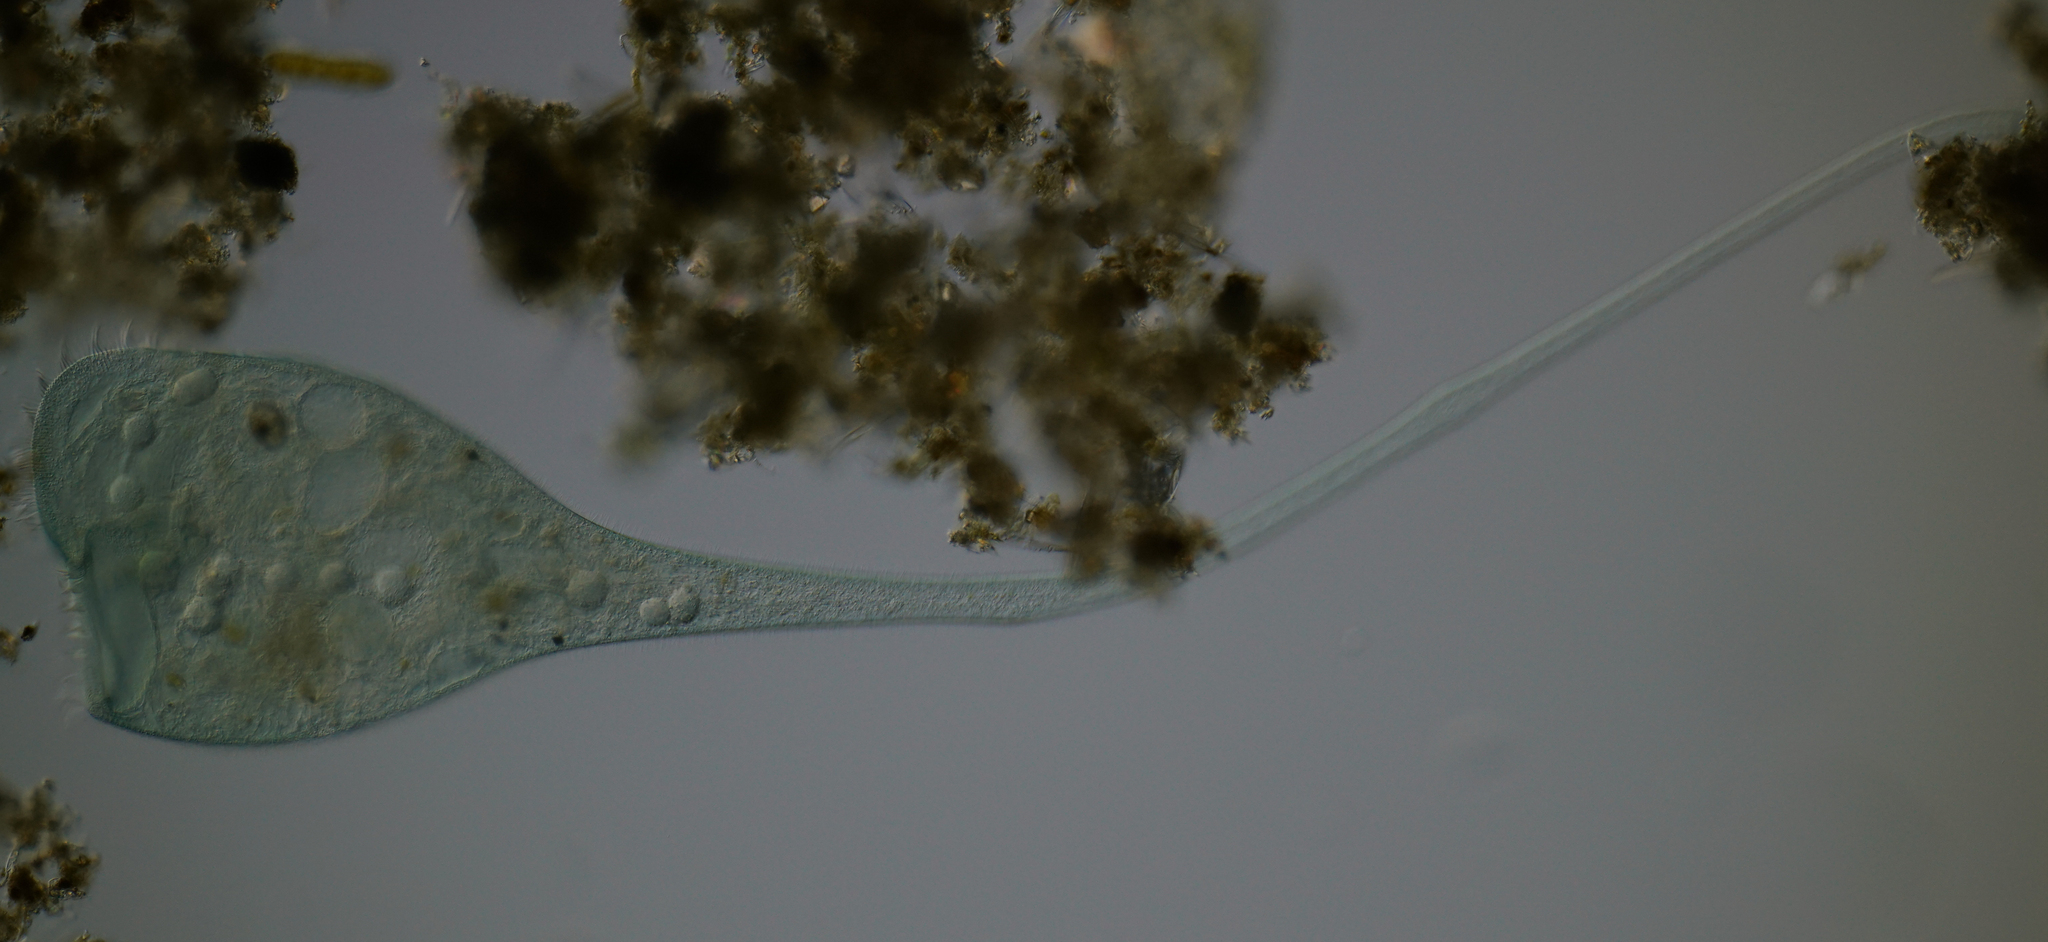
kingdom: Chromista
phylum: Ciliophora
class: Heterotrichea
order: Heterotrichida
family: Stentoridae
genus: Stentor
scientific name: Stentor coeruleus
